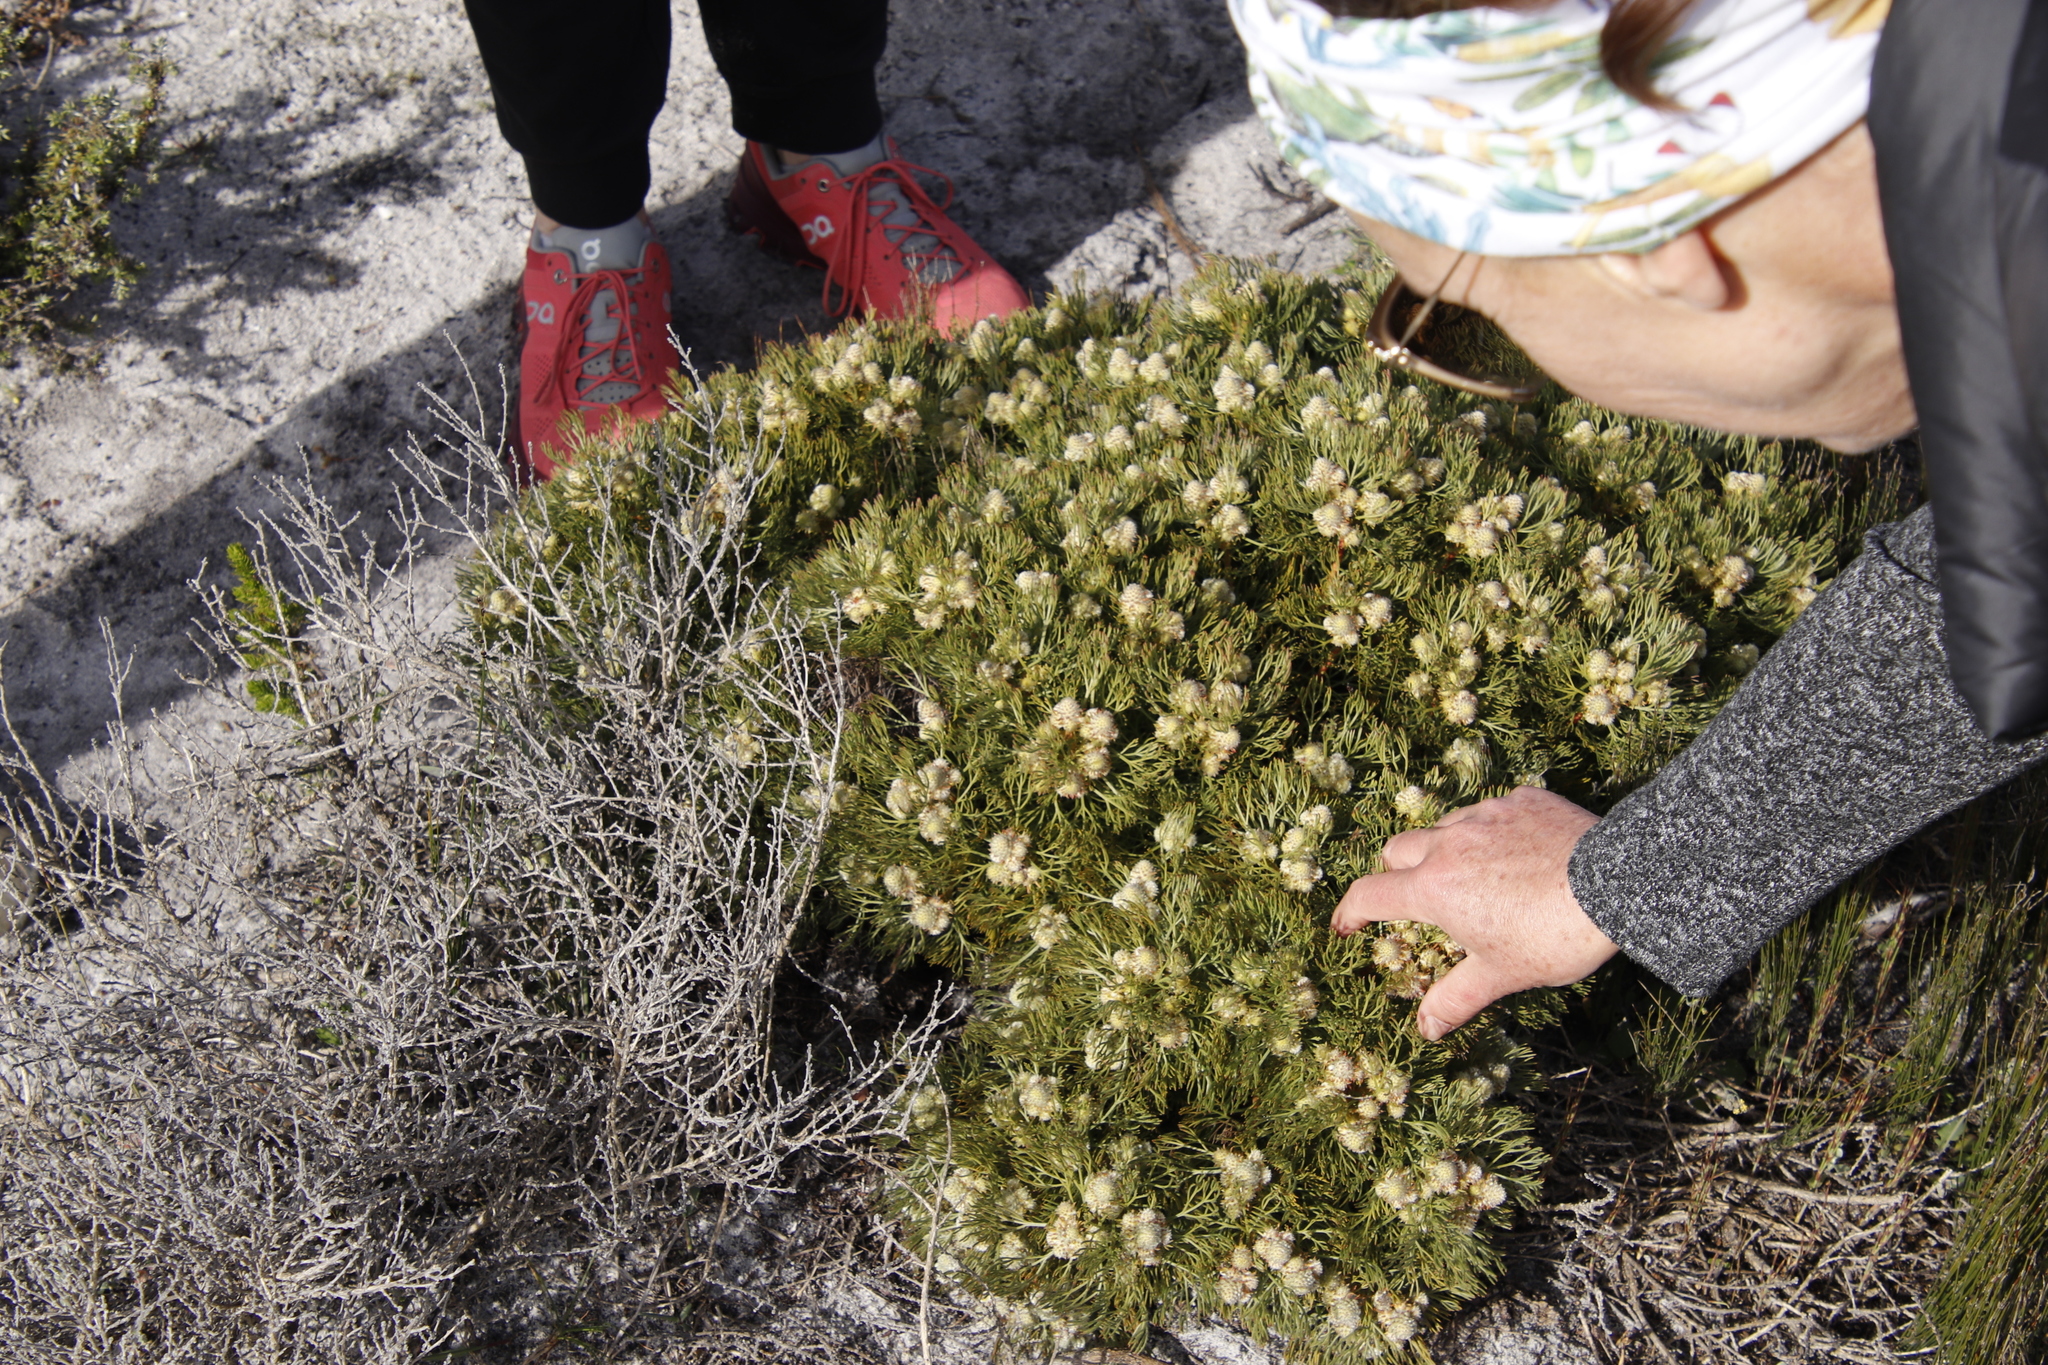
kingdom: Plantae
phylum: Tracheophyta
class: Magnoliopsida
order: Proteales
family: Proteaceae
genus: Serruria
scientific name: Serruria glomerata
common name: Cluster spiderhead
